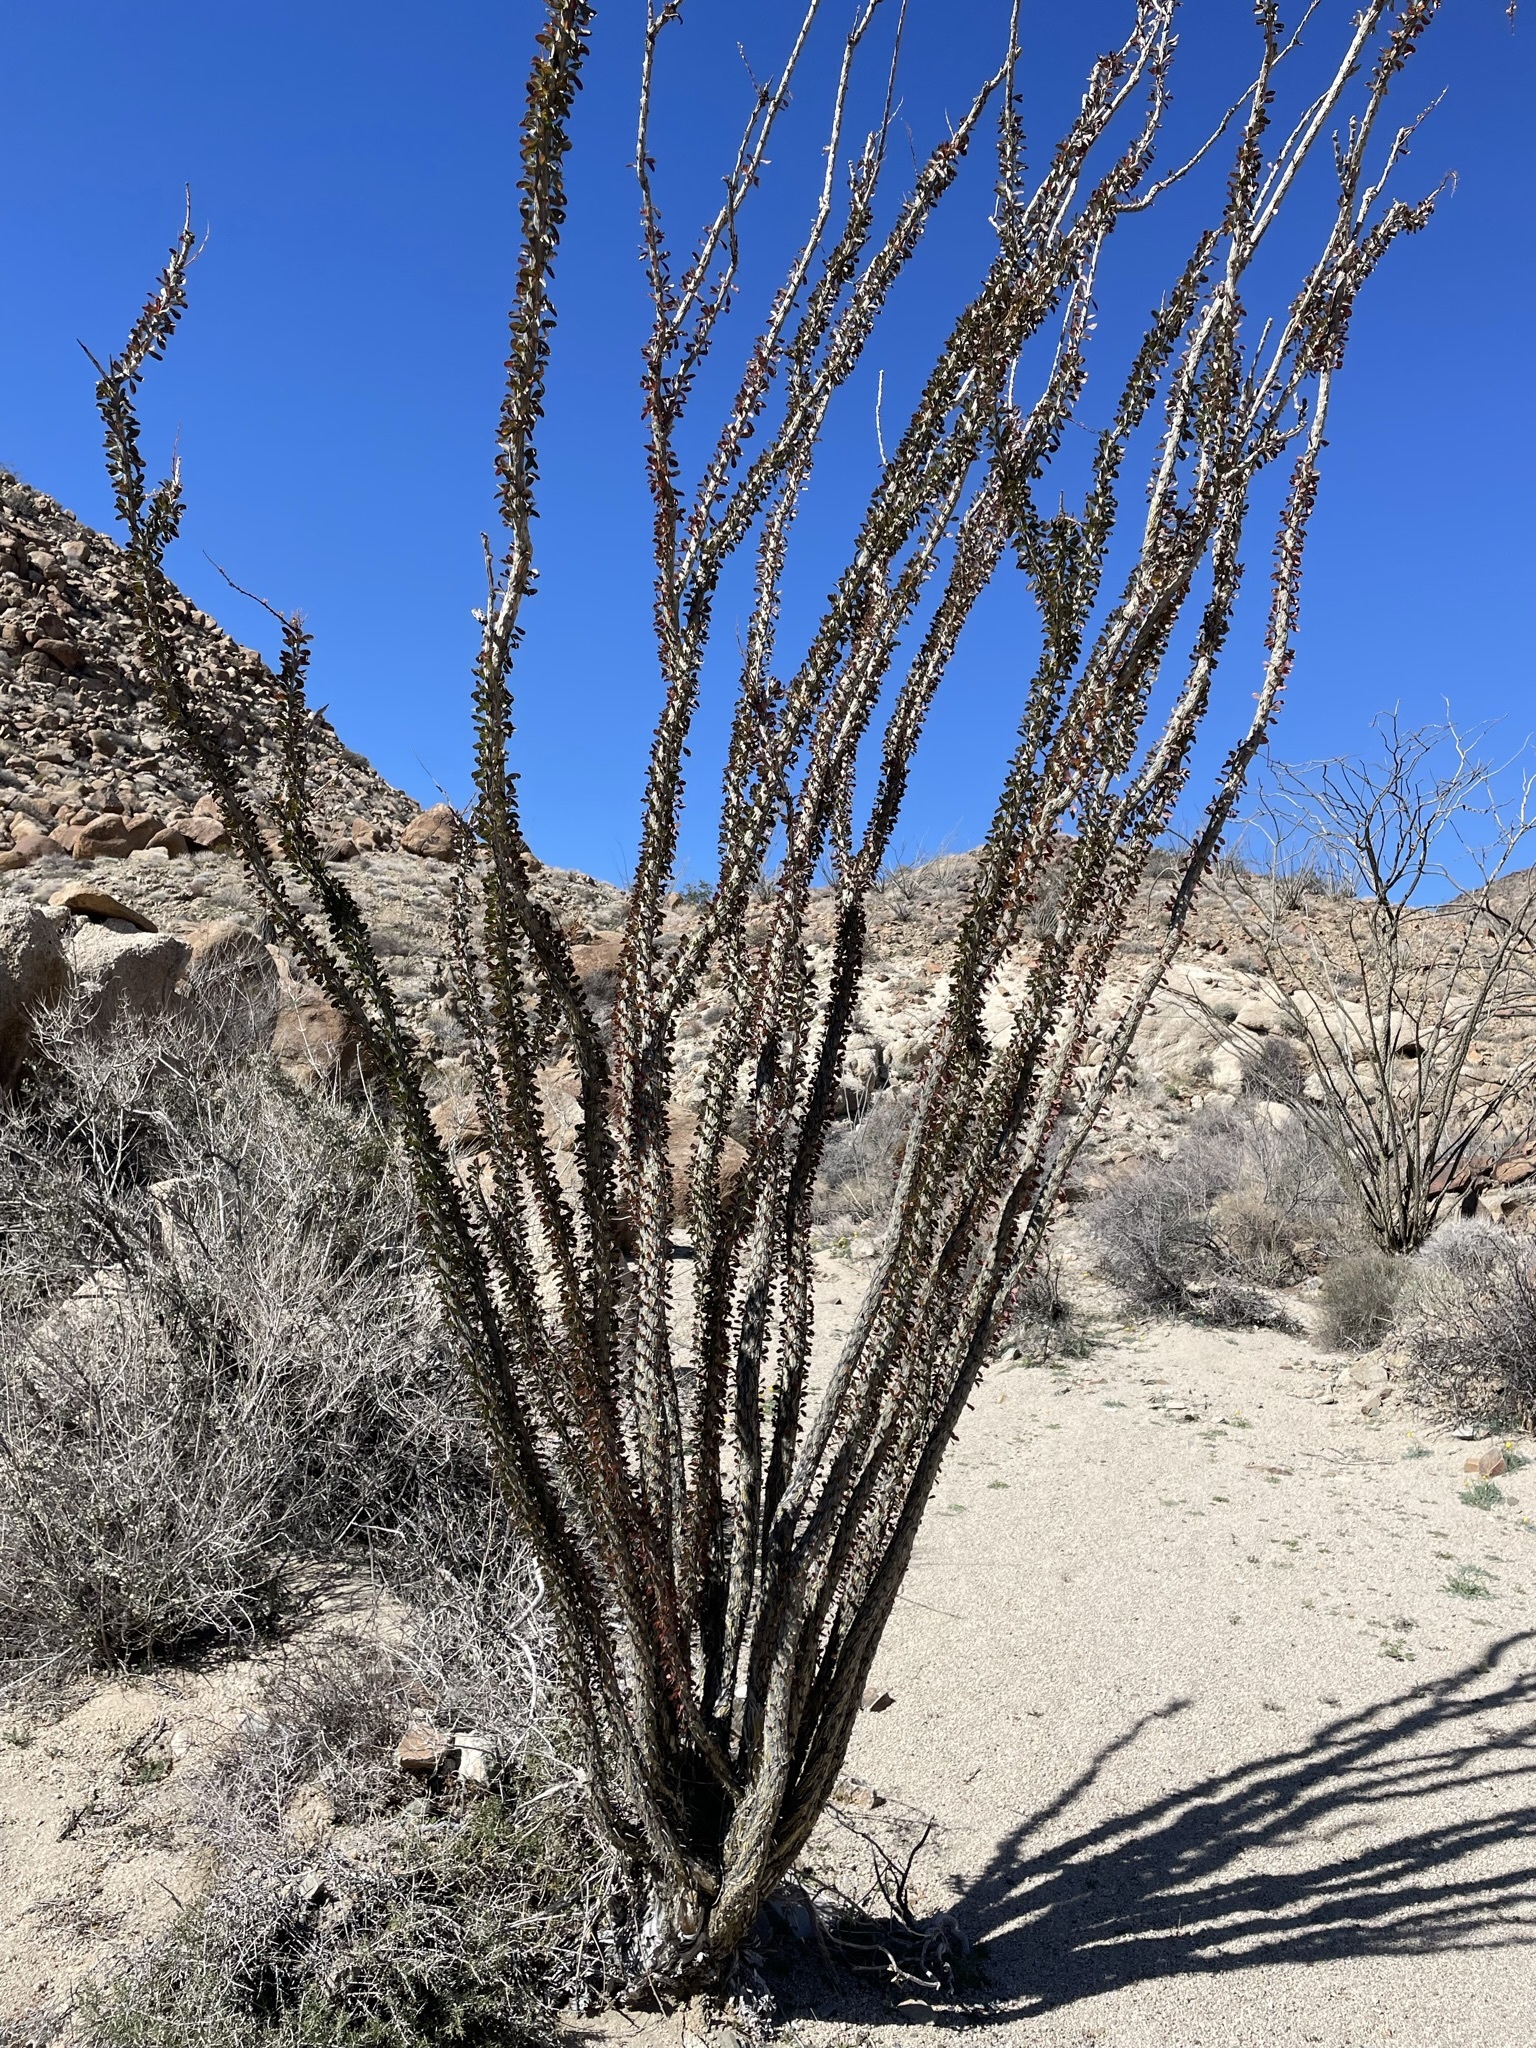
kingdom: Plantae
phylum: Tracheophyta
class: Magnoliopsida
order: Ericales
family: Fouquieriaceae
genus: Fouquieria
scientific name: Fouquieria splendens
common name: Vine-cactus
